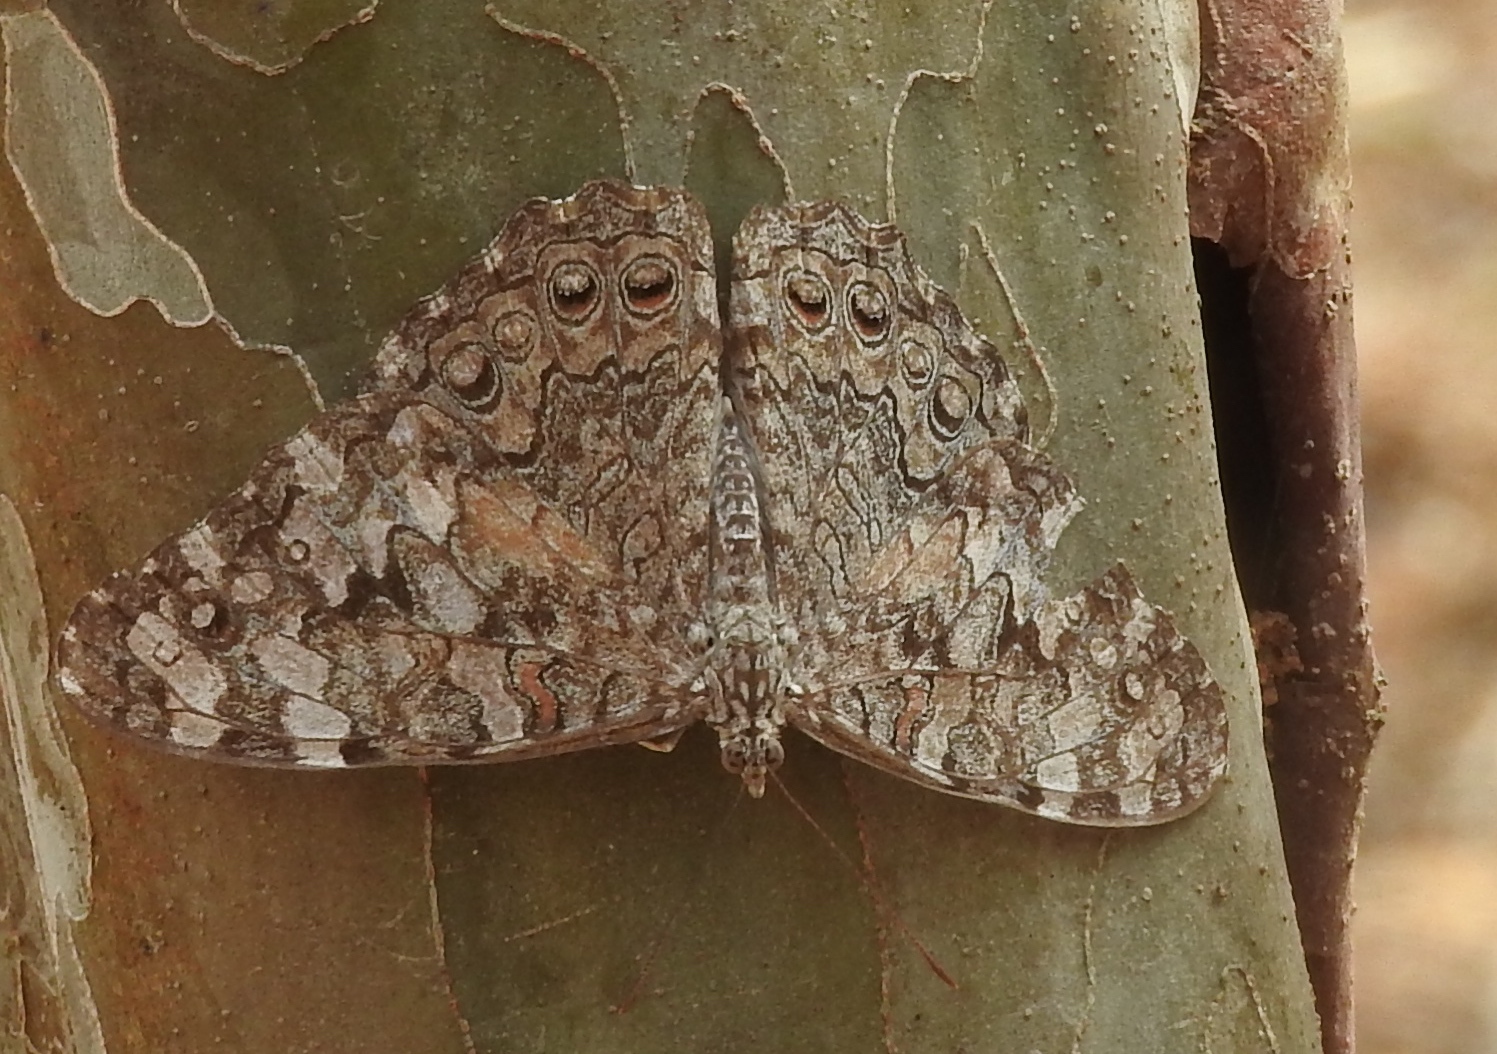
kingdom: Animalia
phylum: Arthropoda
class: Insecta
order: Lepidoptera
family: Nymphalidae
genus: Hamadryas
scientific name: Hamadryas februa
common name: Gray cracker
